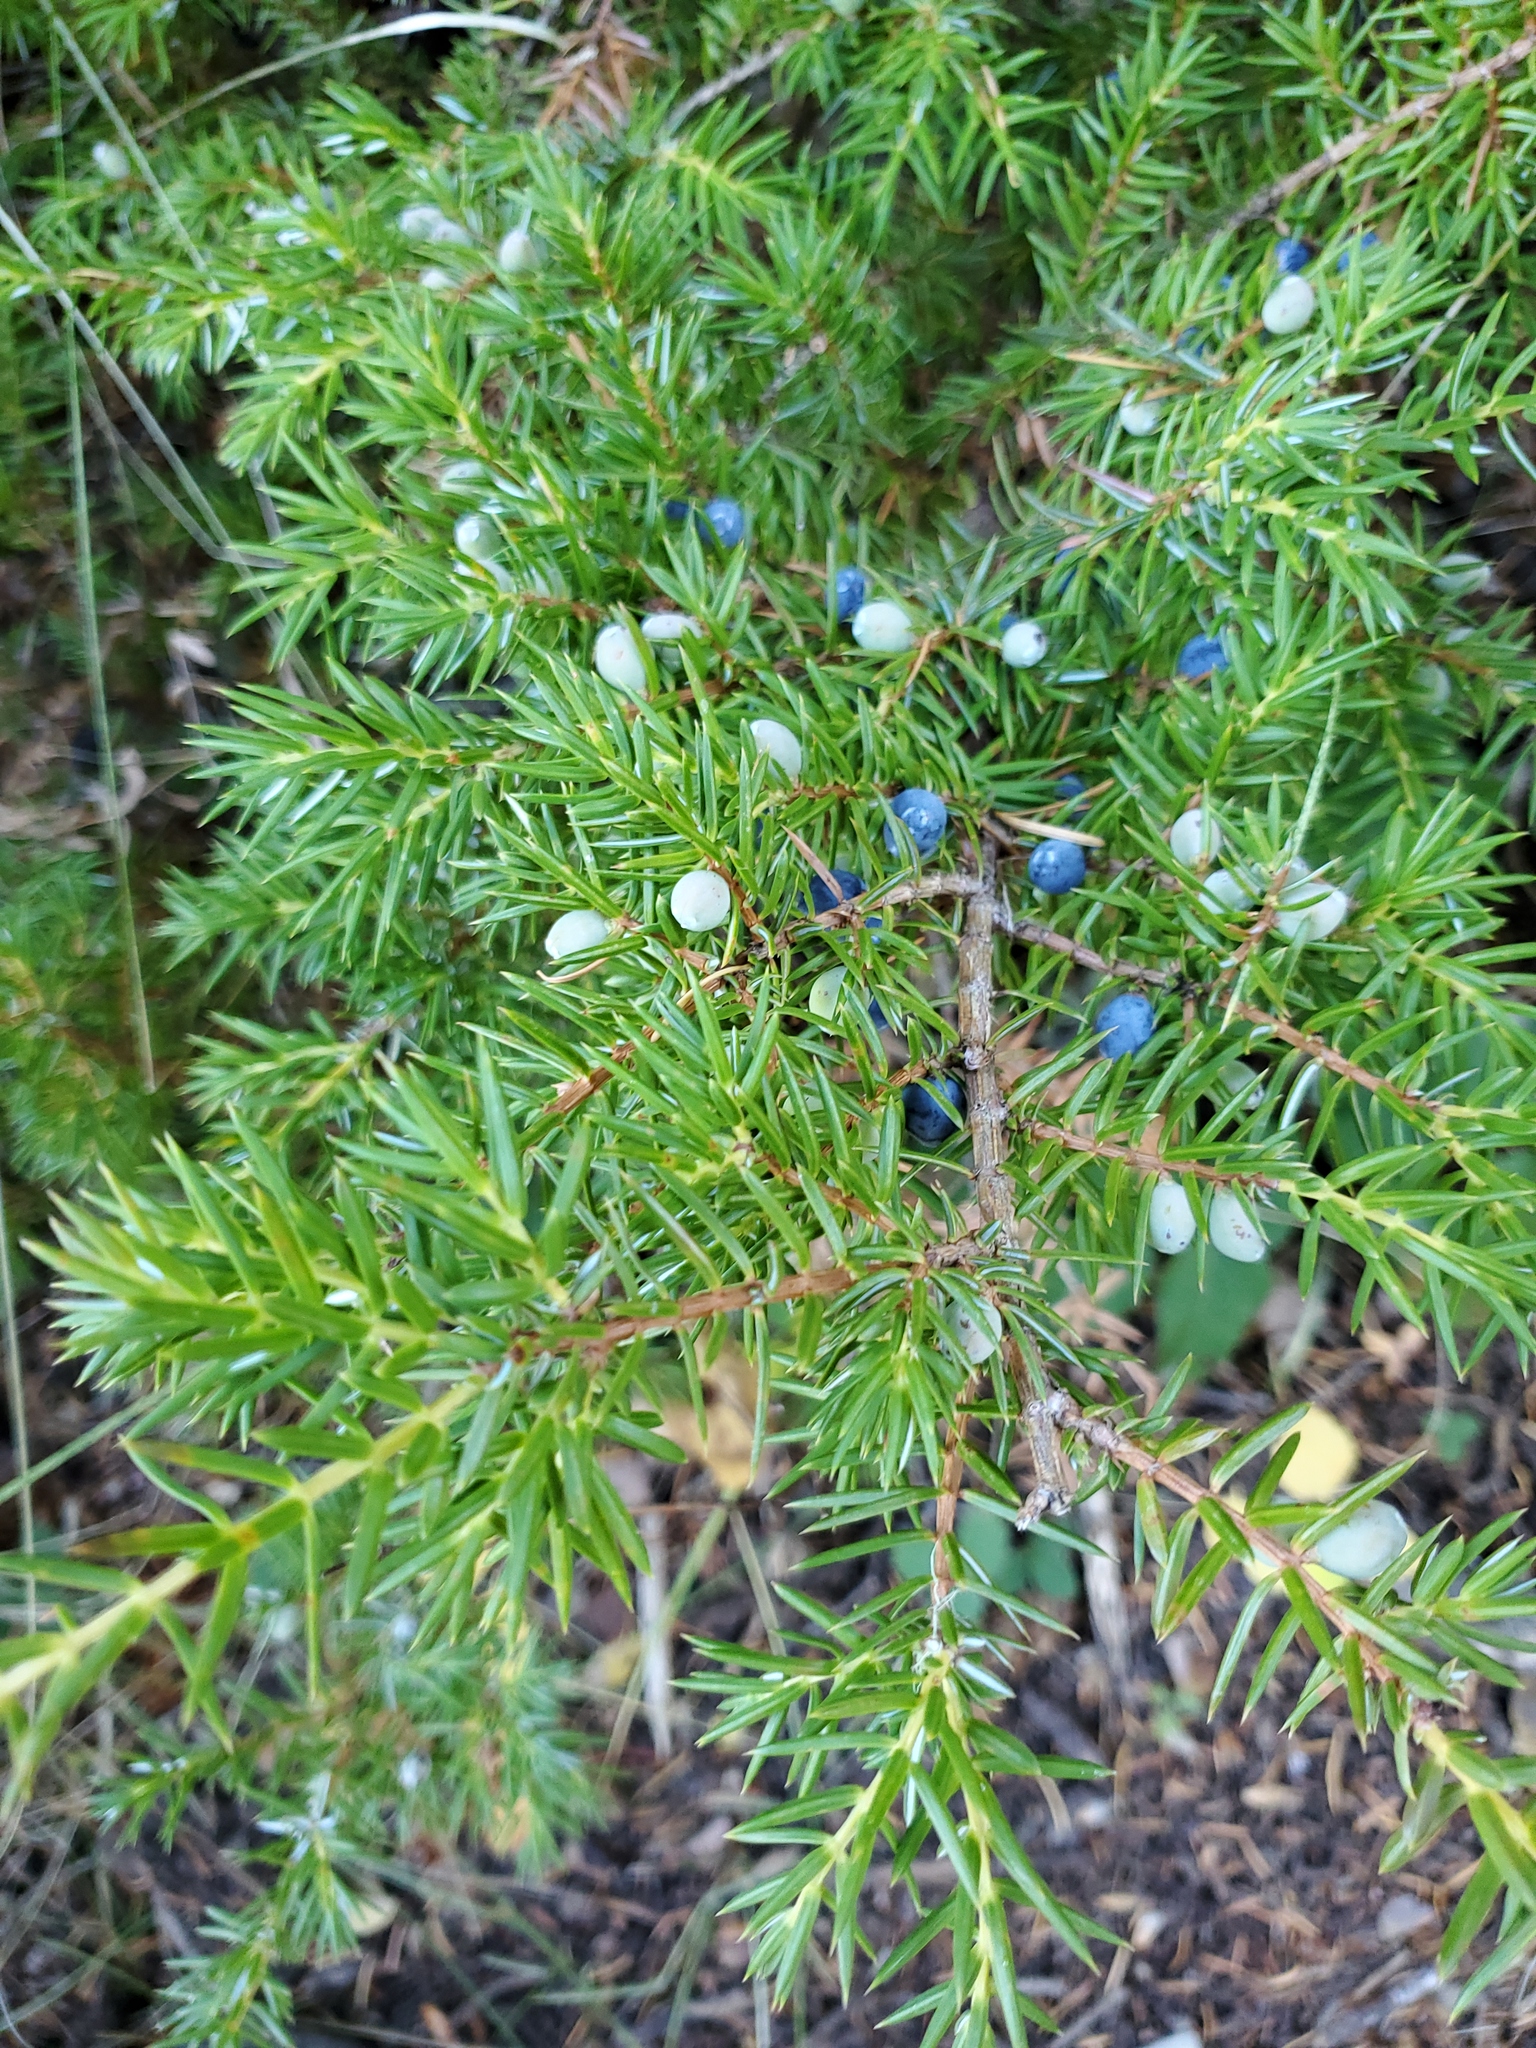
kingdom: Plantae
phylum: Tracheophyta
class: Pinopsida
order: Pinales
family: Cupressaceae
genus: Juniperus
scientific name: Juniperus communis
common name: Common juniper
